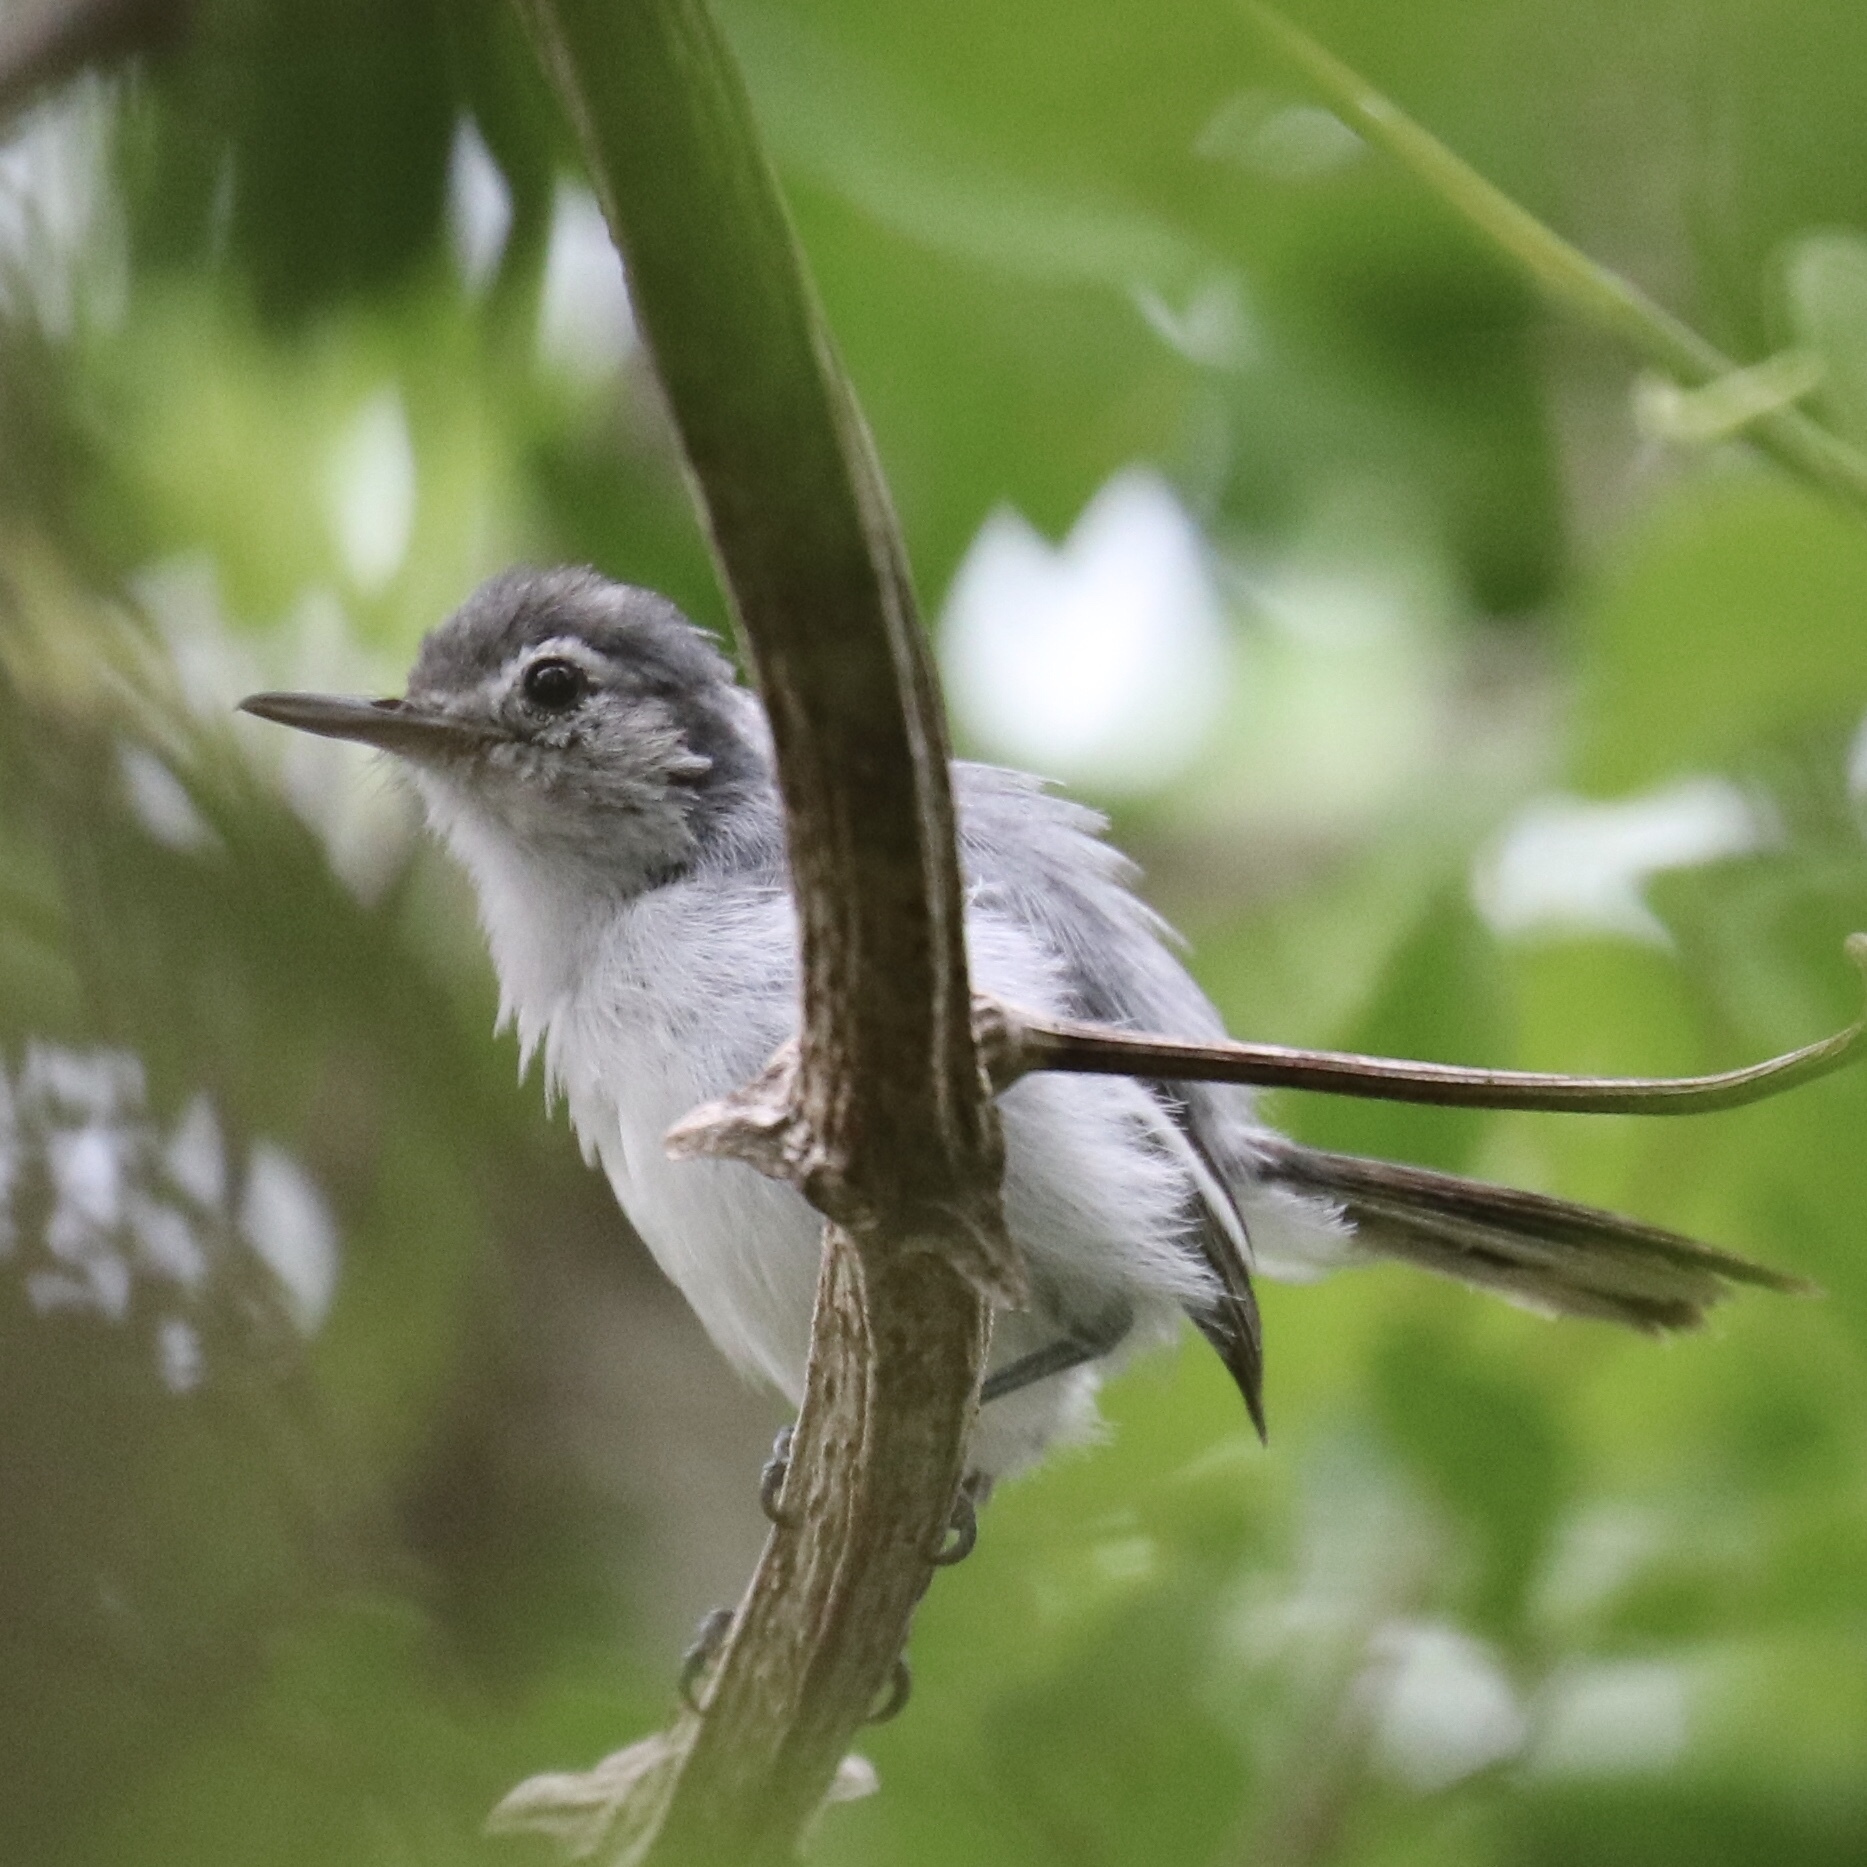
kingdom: Animalia
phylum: Chordata
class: Aves
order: Passeriformes
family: Polioptilidae
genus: Polioptila
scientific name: Polioptila plumbea
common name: Tropical gnatcatcher
